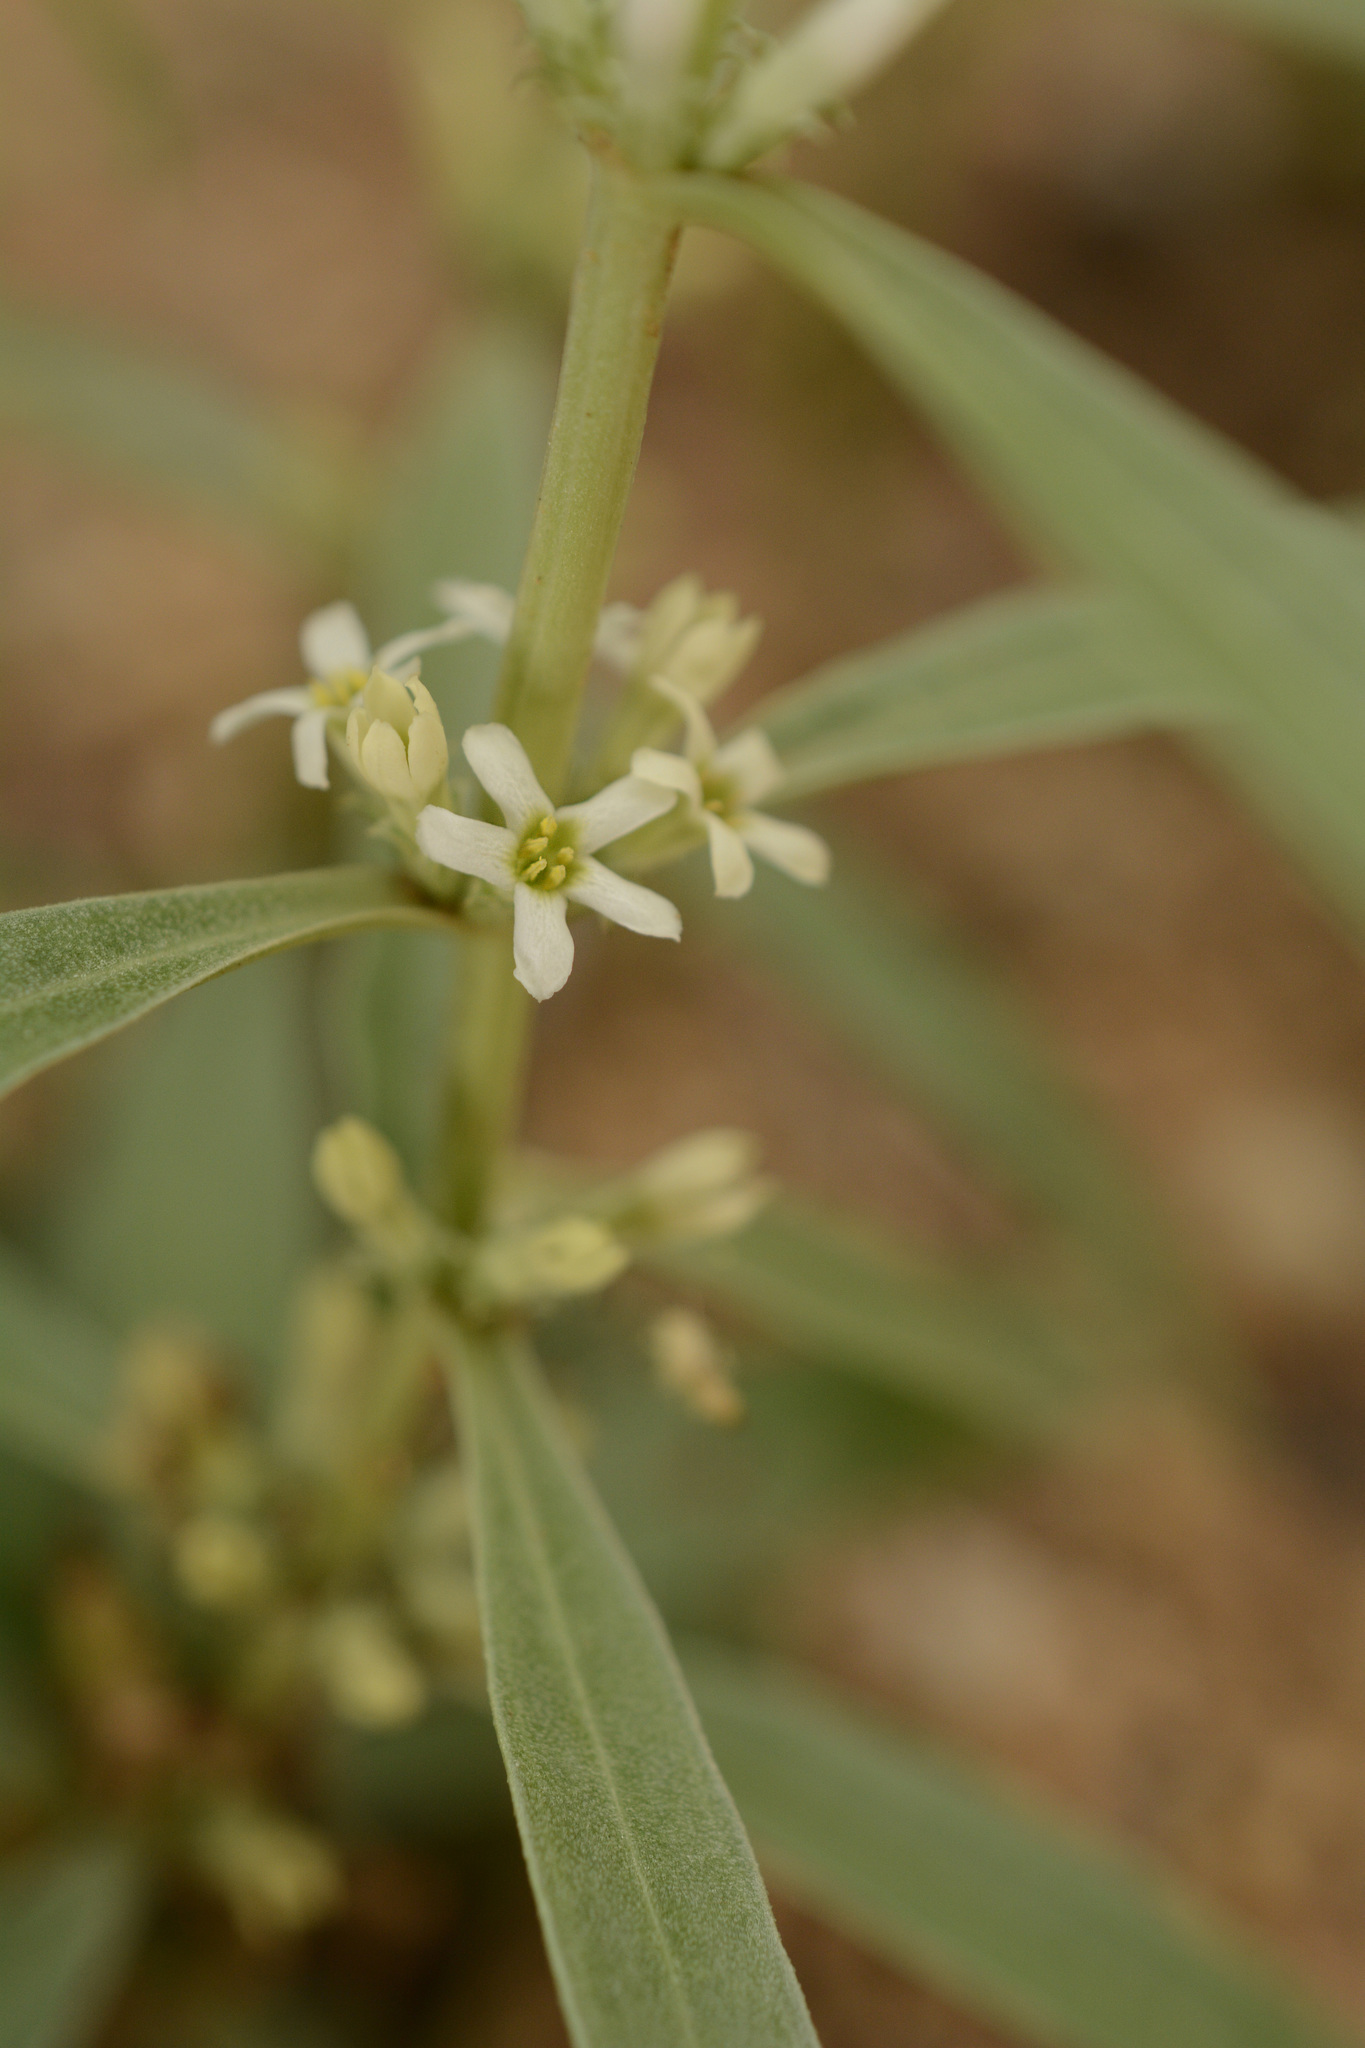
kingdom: Plantae
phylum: Tracheophyta
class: Magnoliopsida
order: Gentianales
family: Gentianaceae
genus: Enicostema
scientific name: Enicostema axillare
